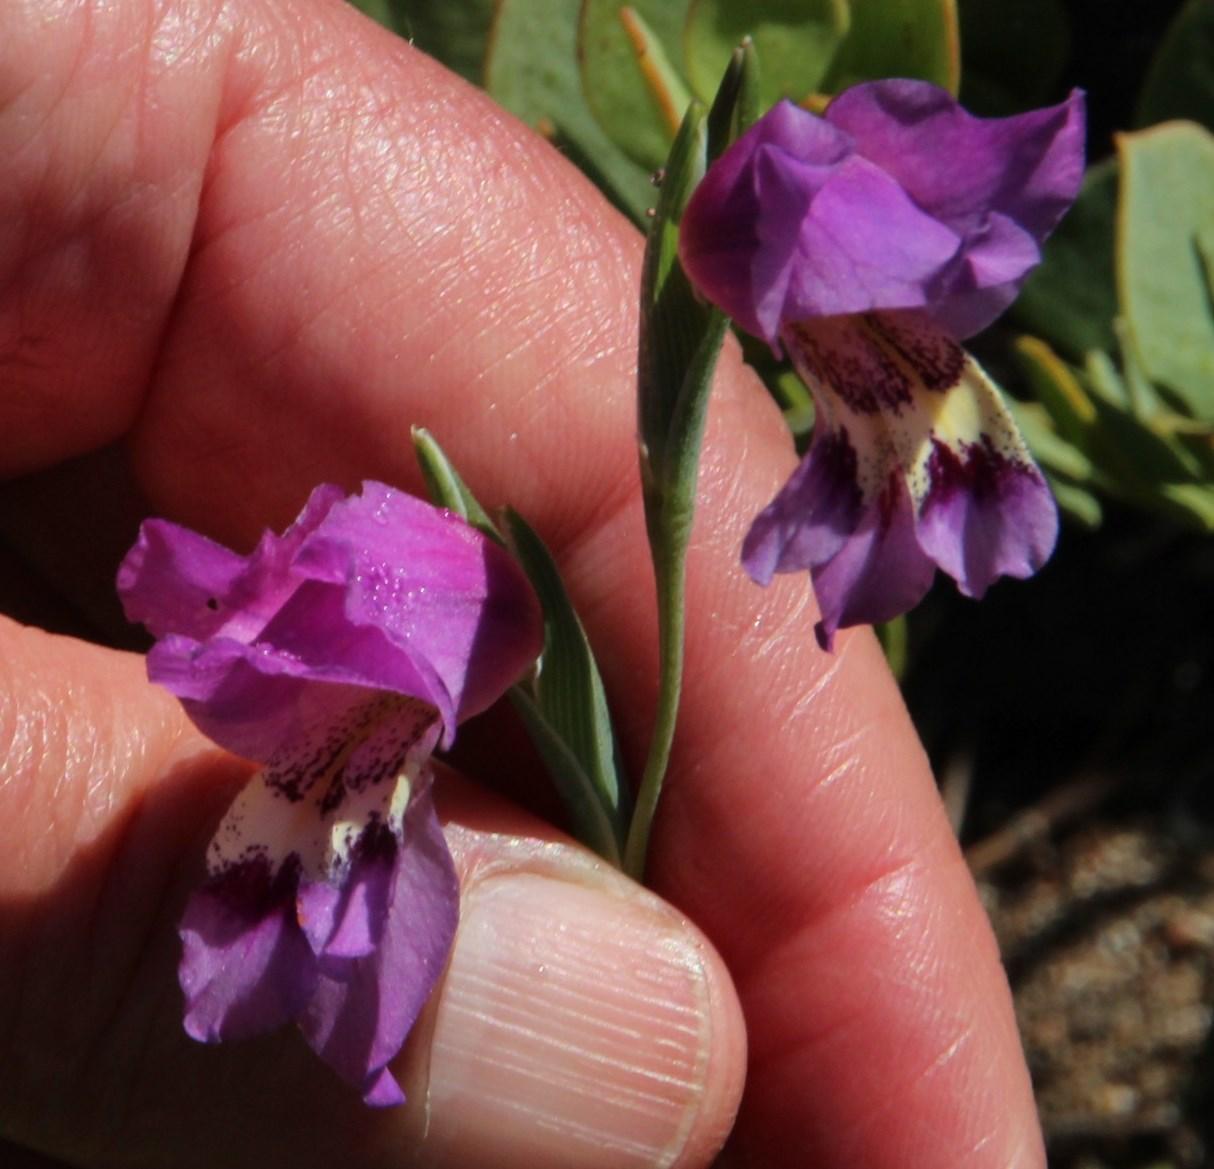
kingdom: Plantae
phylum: Tracheophyta
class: Liliopsida
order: Asparagales
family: Iridaceae
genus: Gladiolus
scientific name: Gladiolus carinatus
